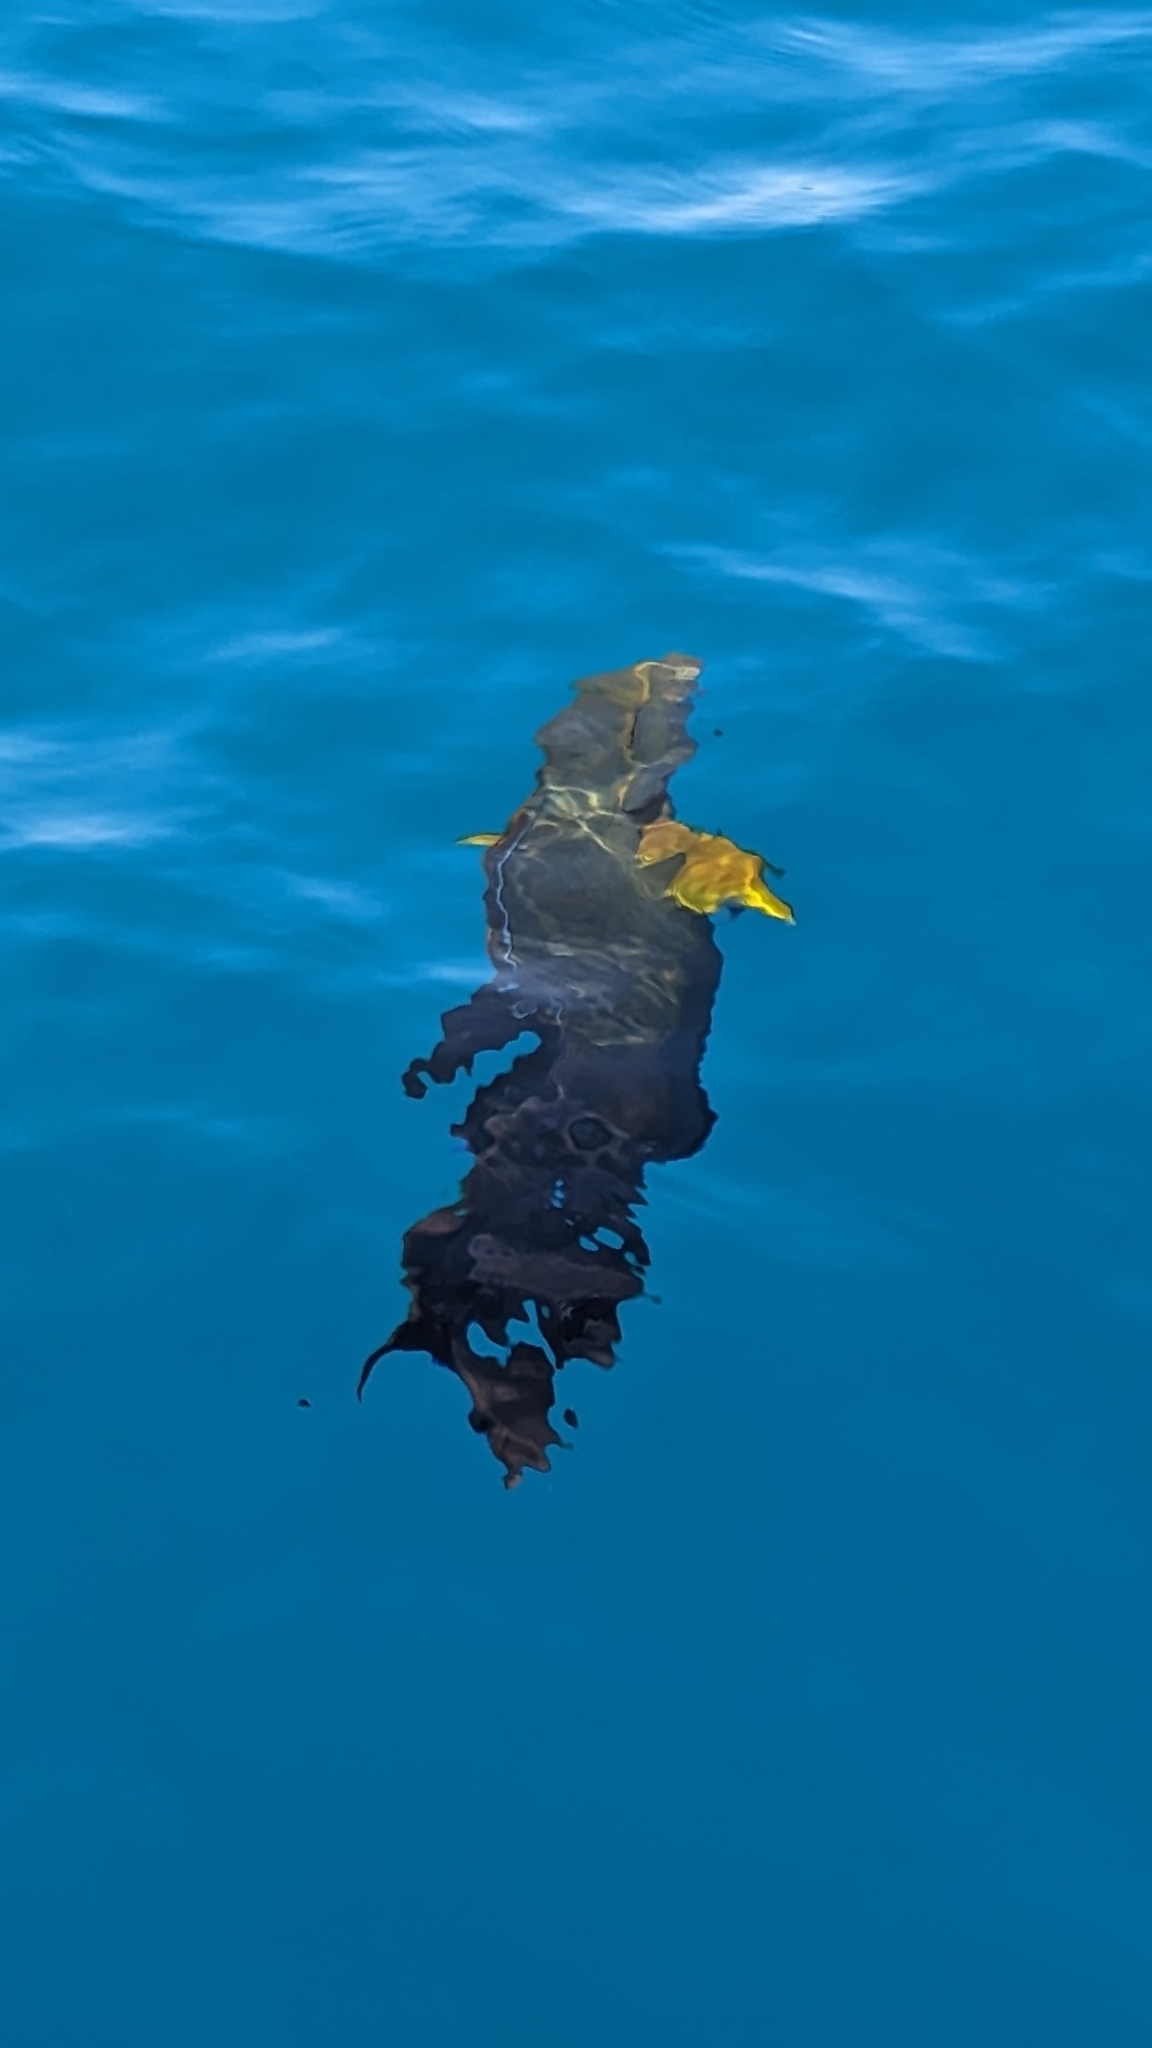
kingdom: Animalia
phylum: Chordata
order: Perciformes
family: Acanthuridae
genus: Acanthurus
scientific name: Acanthurus xanthopterus
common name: Cuvier's surgeonfish
